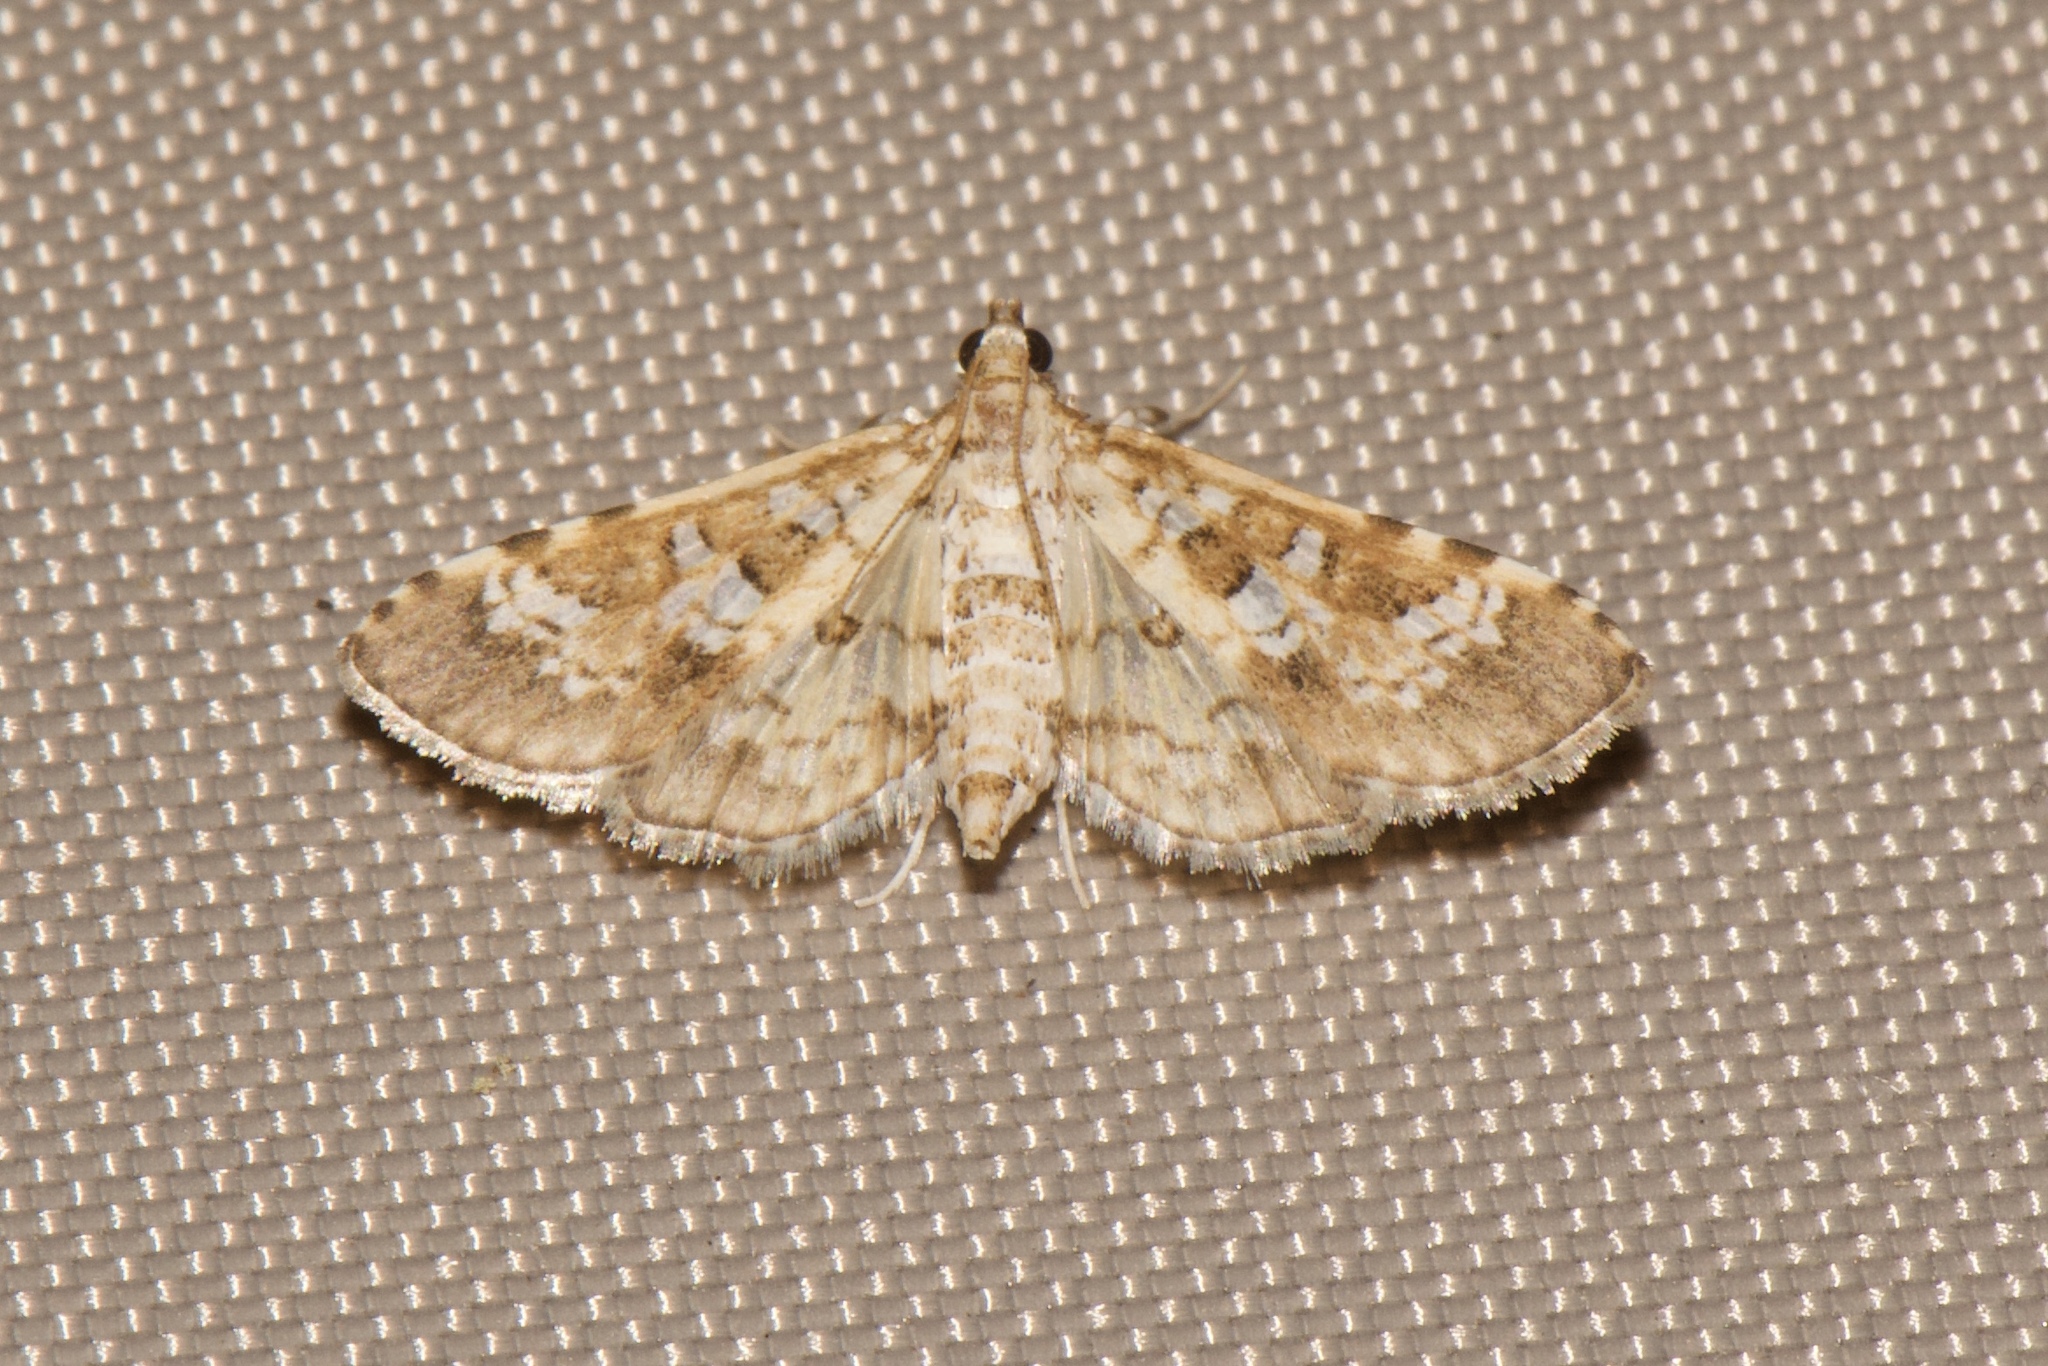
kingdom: Animalia
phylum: Arthropoda
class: Insecta
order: Lepidoptera
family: Crambidae
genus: Samea
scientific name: Samea multiplicalis
